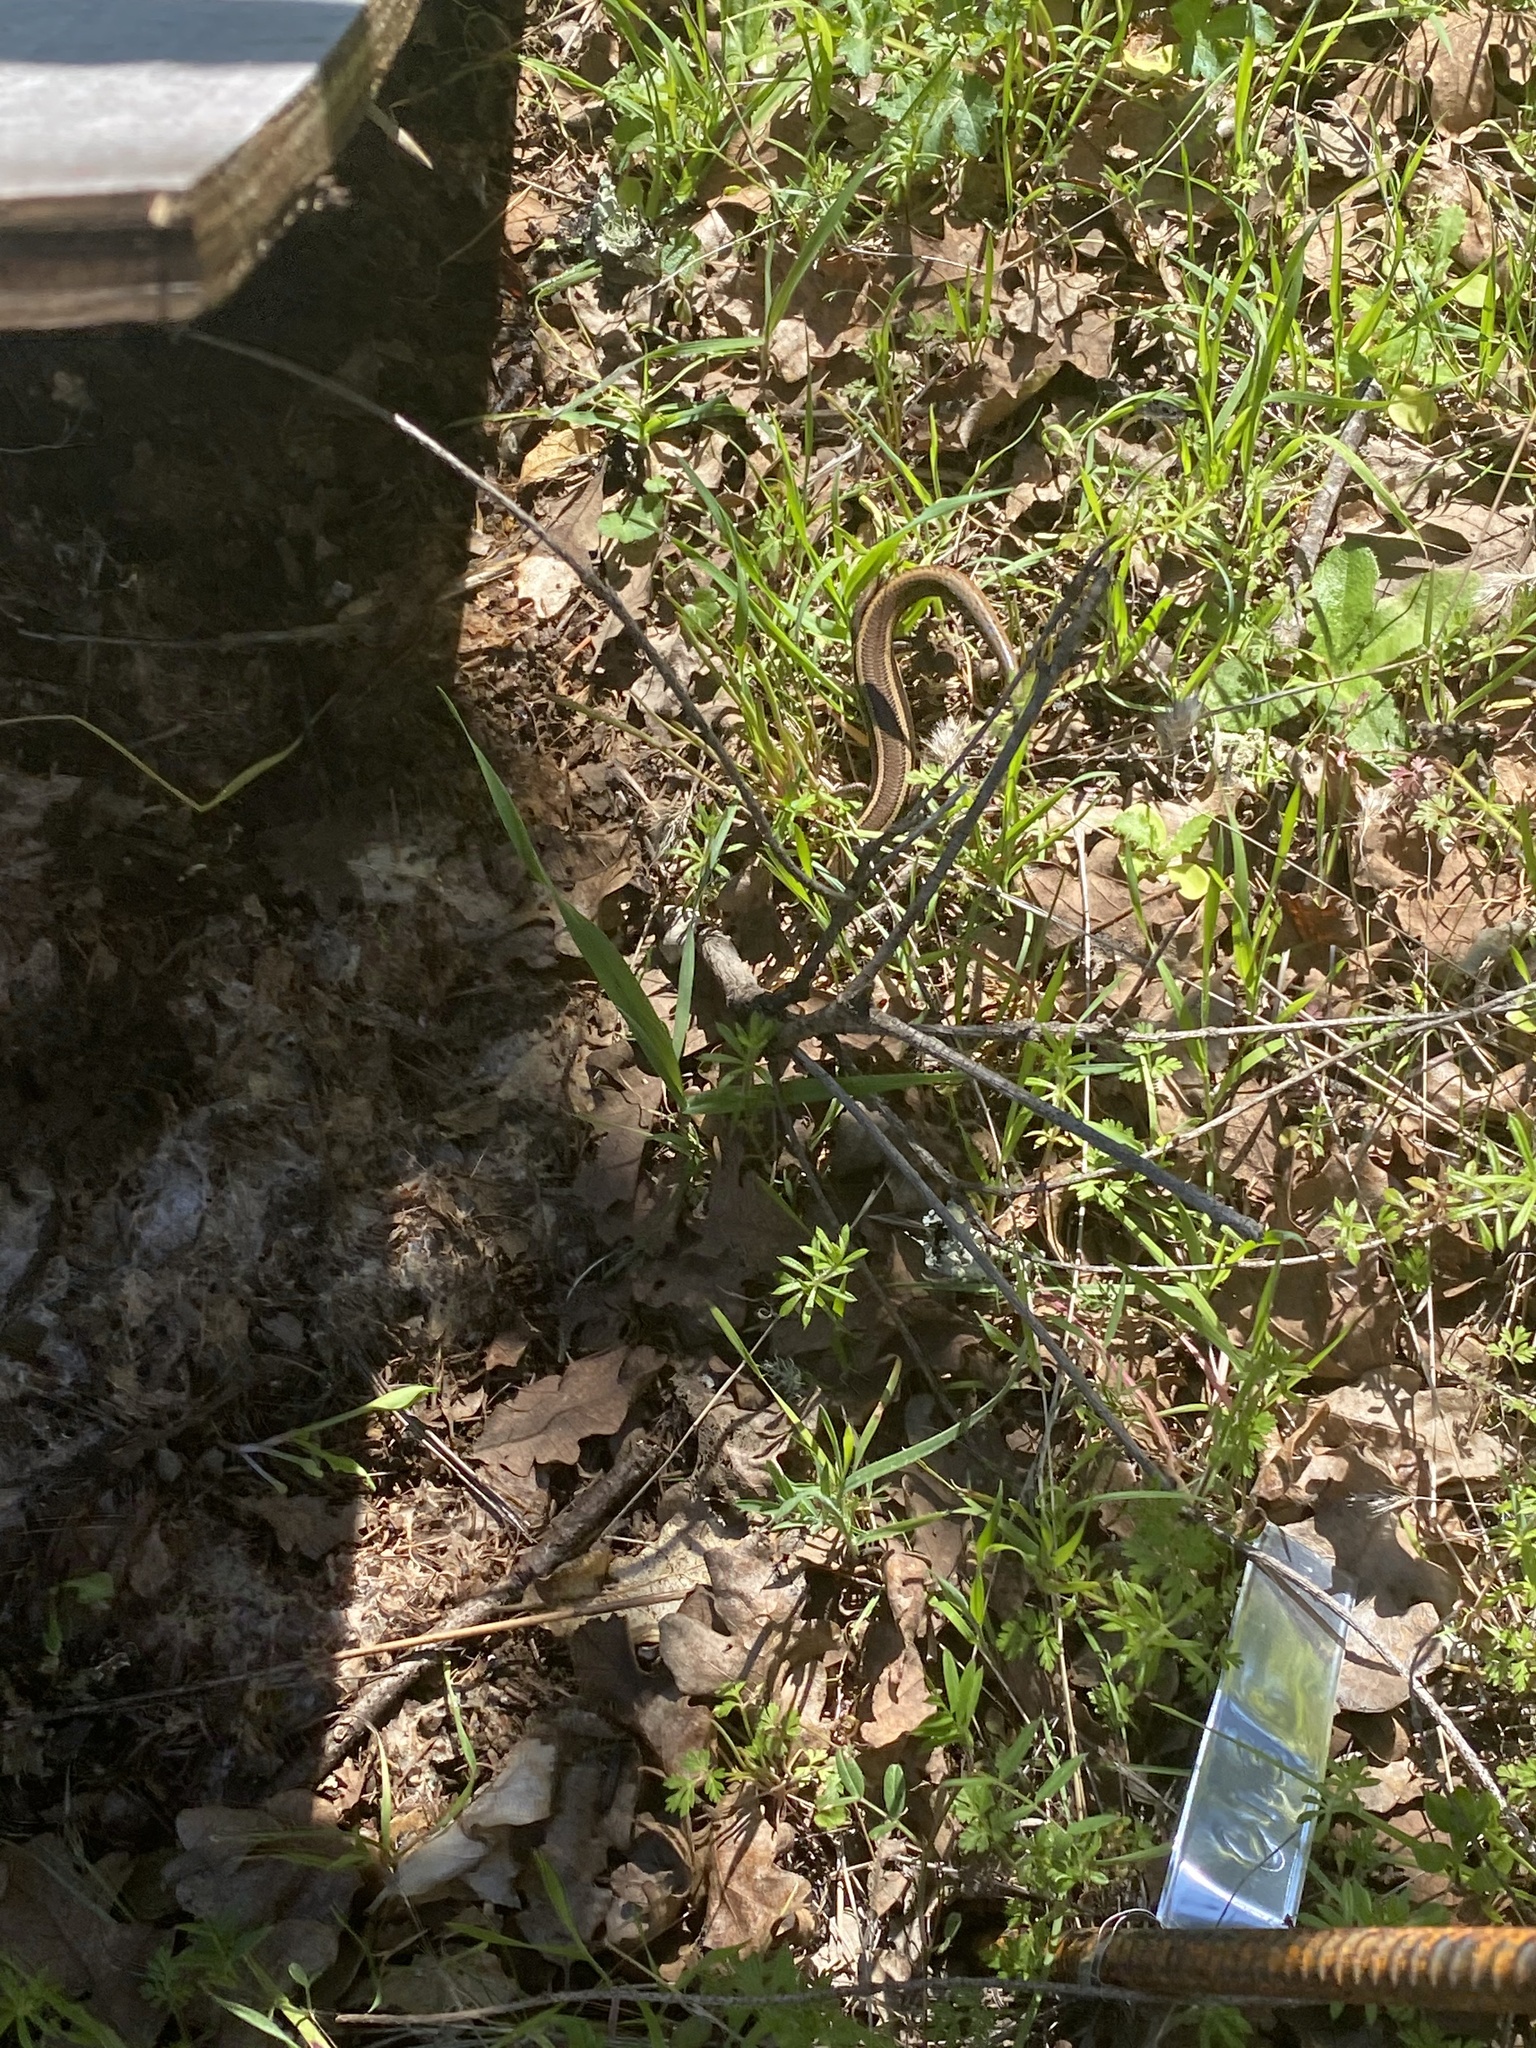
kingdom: Animalia
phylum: Chordata
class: Squamata
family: Scincidae
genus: Plestiodon
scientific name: Plestiodon skiltonianus
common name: Coronado island skink [interparietalis]
